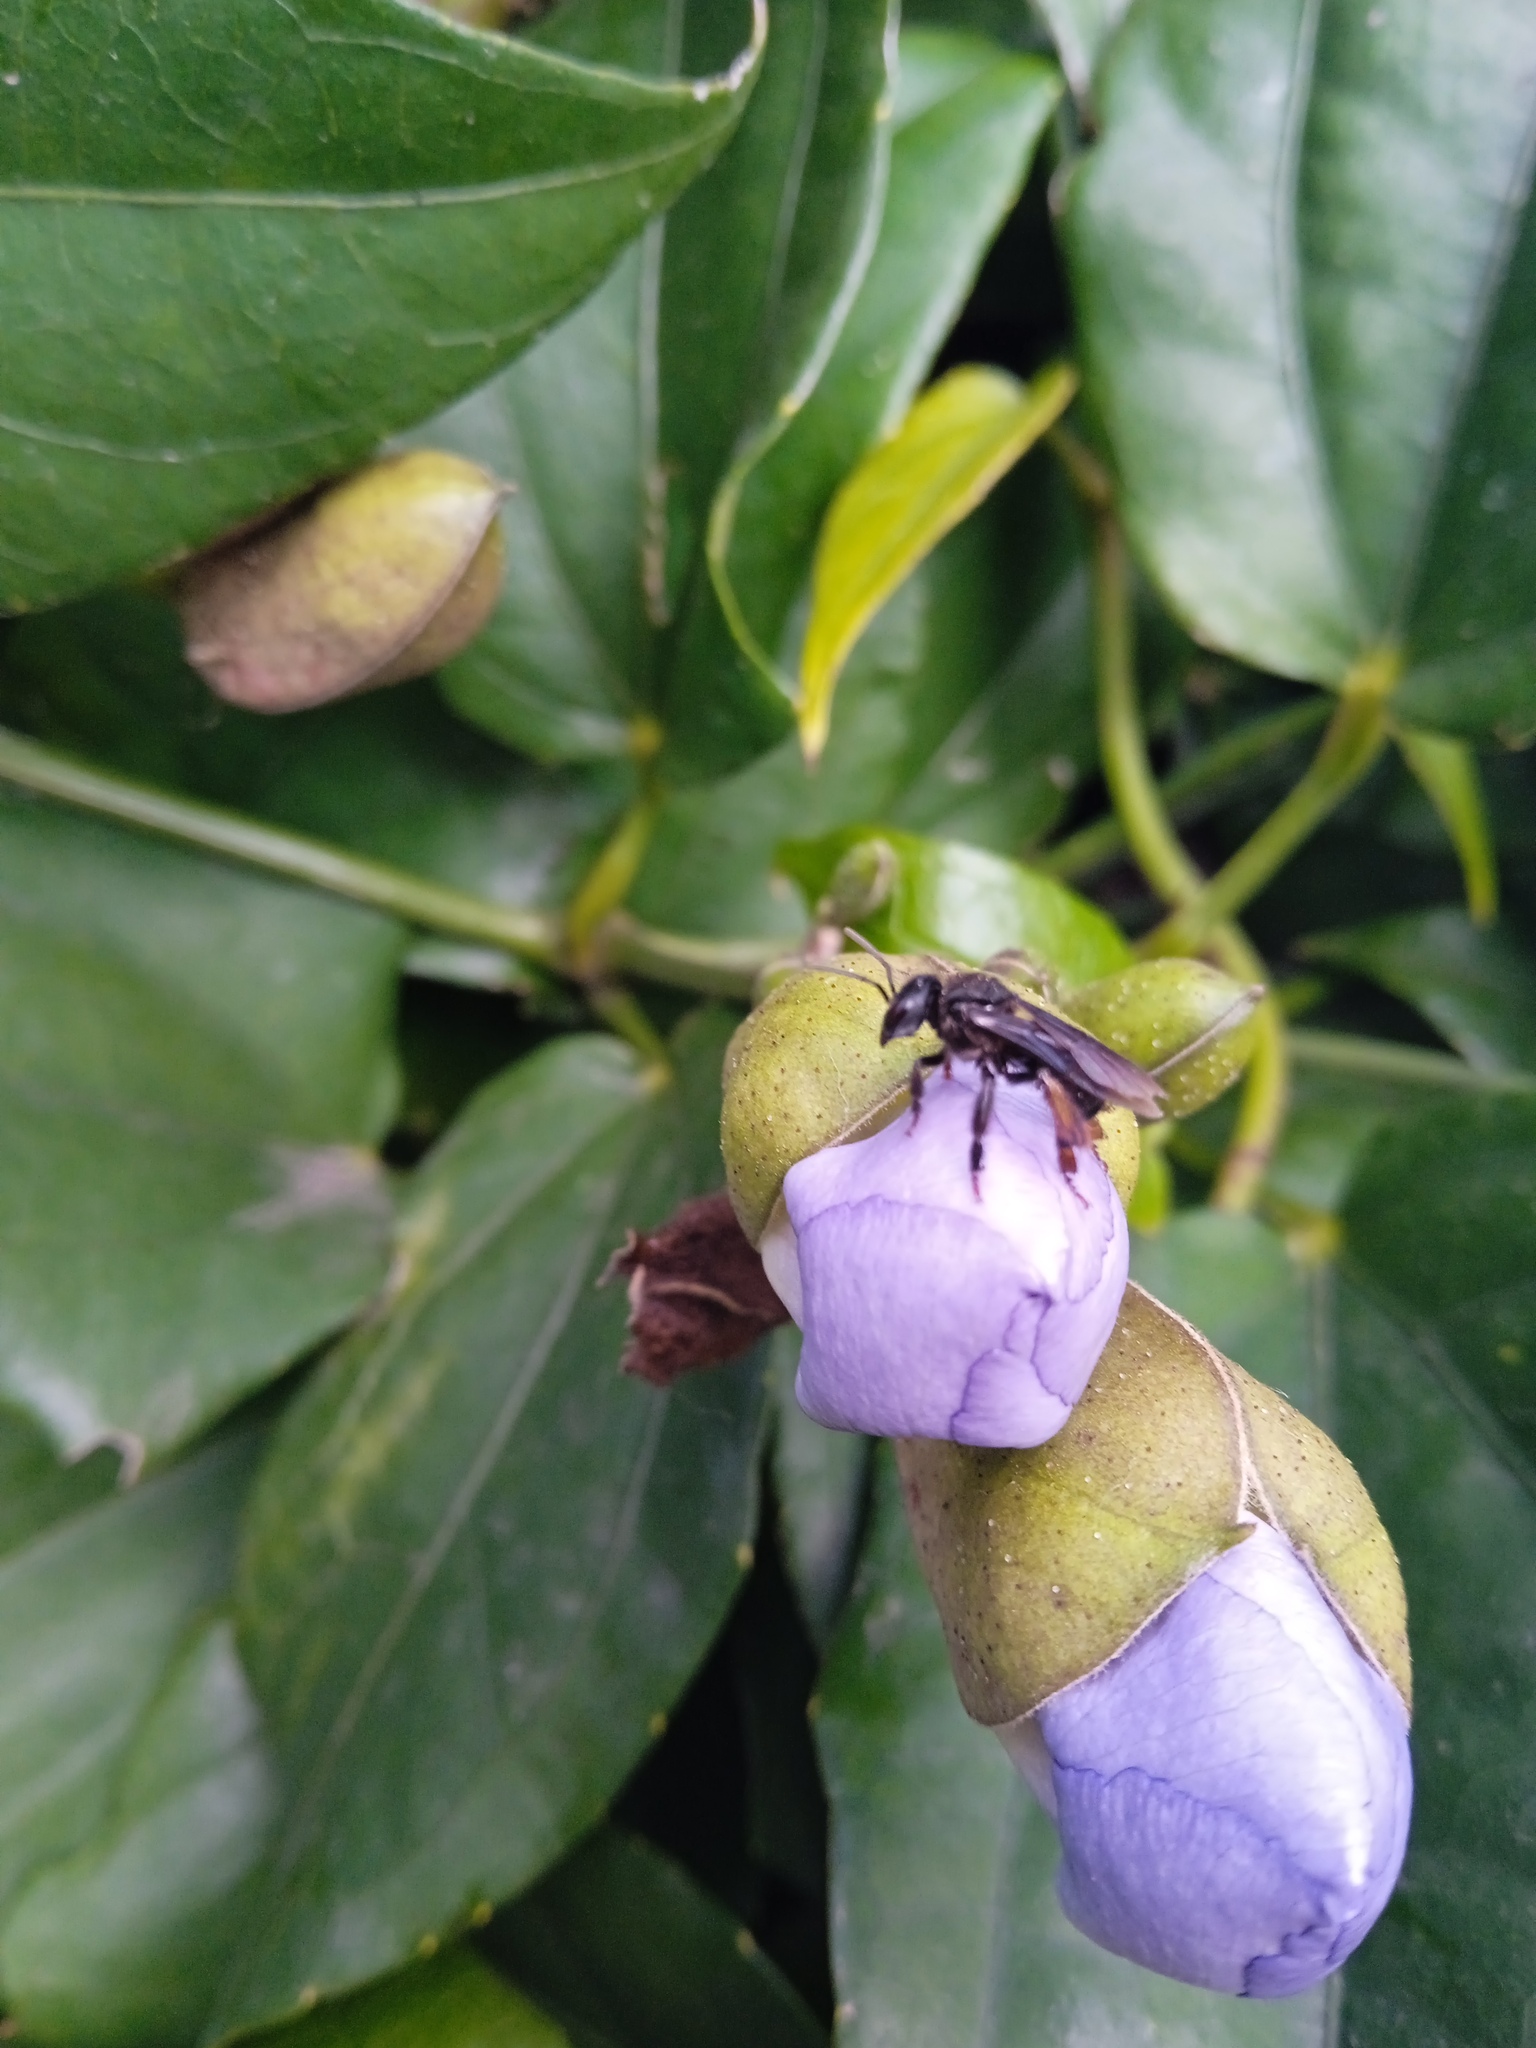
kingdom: Animalia
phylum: Arthropoda
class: Insecta
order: Hymenoptera
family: Apidae
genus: Trigona
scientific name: Trigona spinipes
